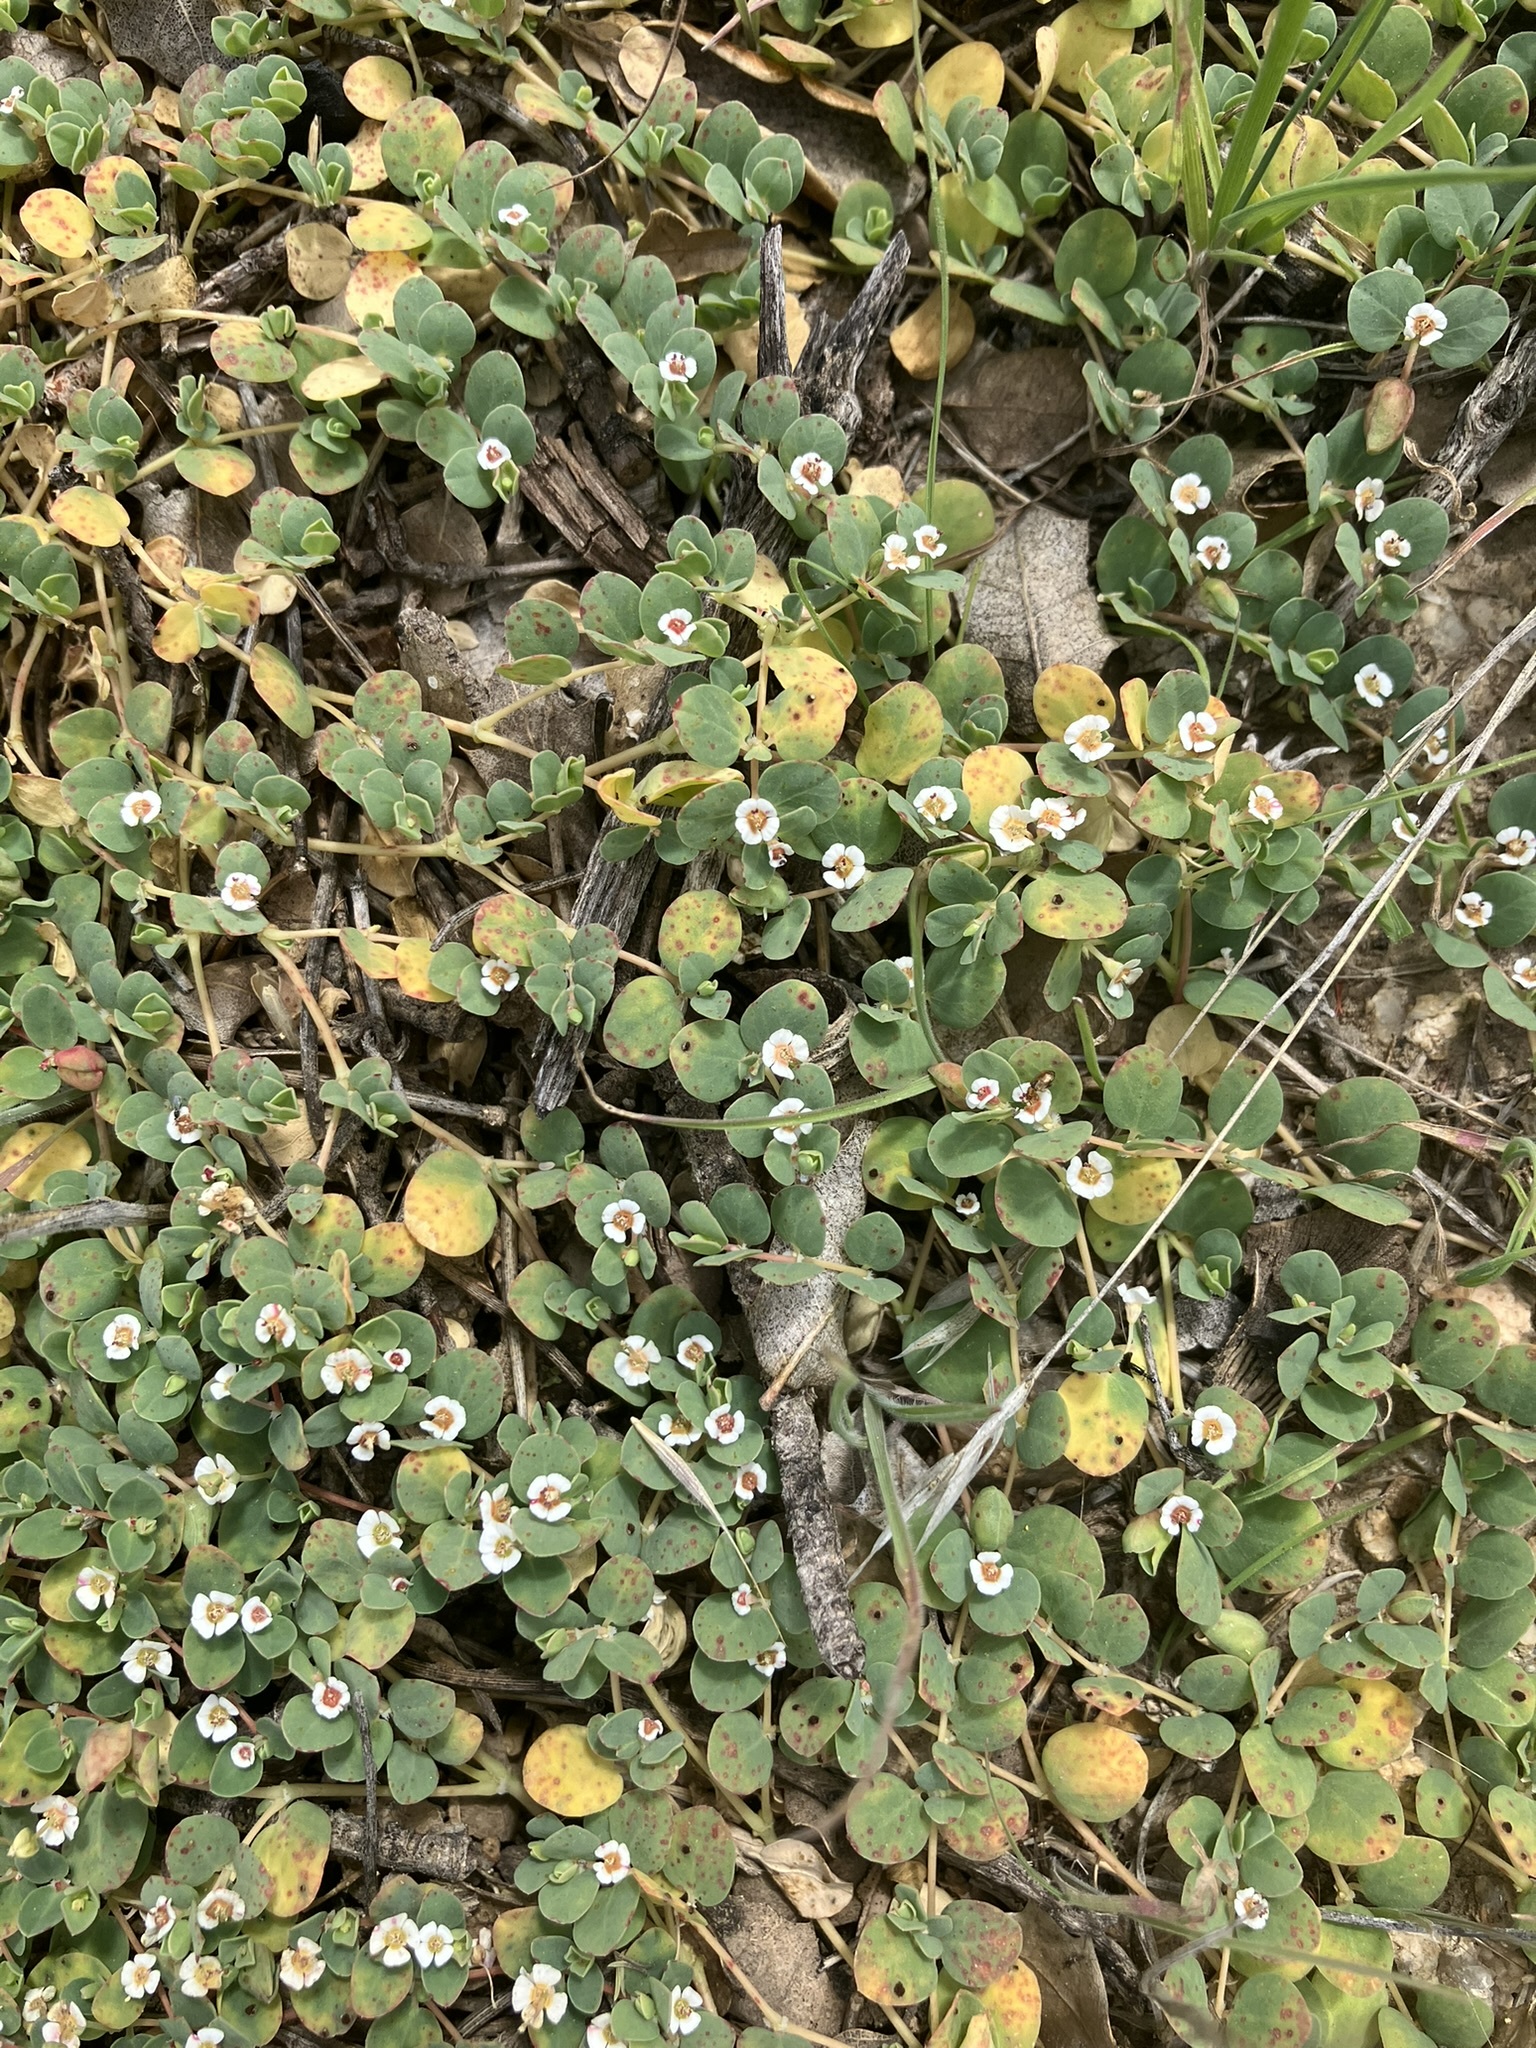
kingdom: Plantae
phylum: Tracheophyta
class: Magnoliopsida
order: Malpighiales
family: Euphorbiaceae
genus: Euphorbia
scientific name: Euphorbia albomarginata
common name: Whitemargin sandmat
